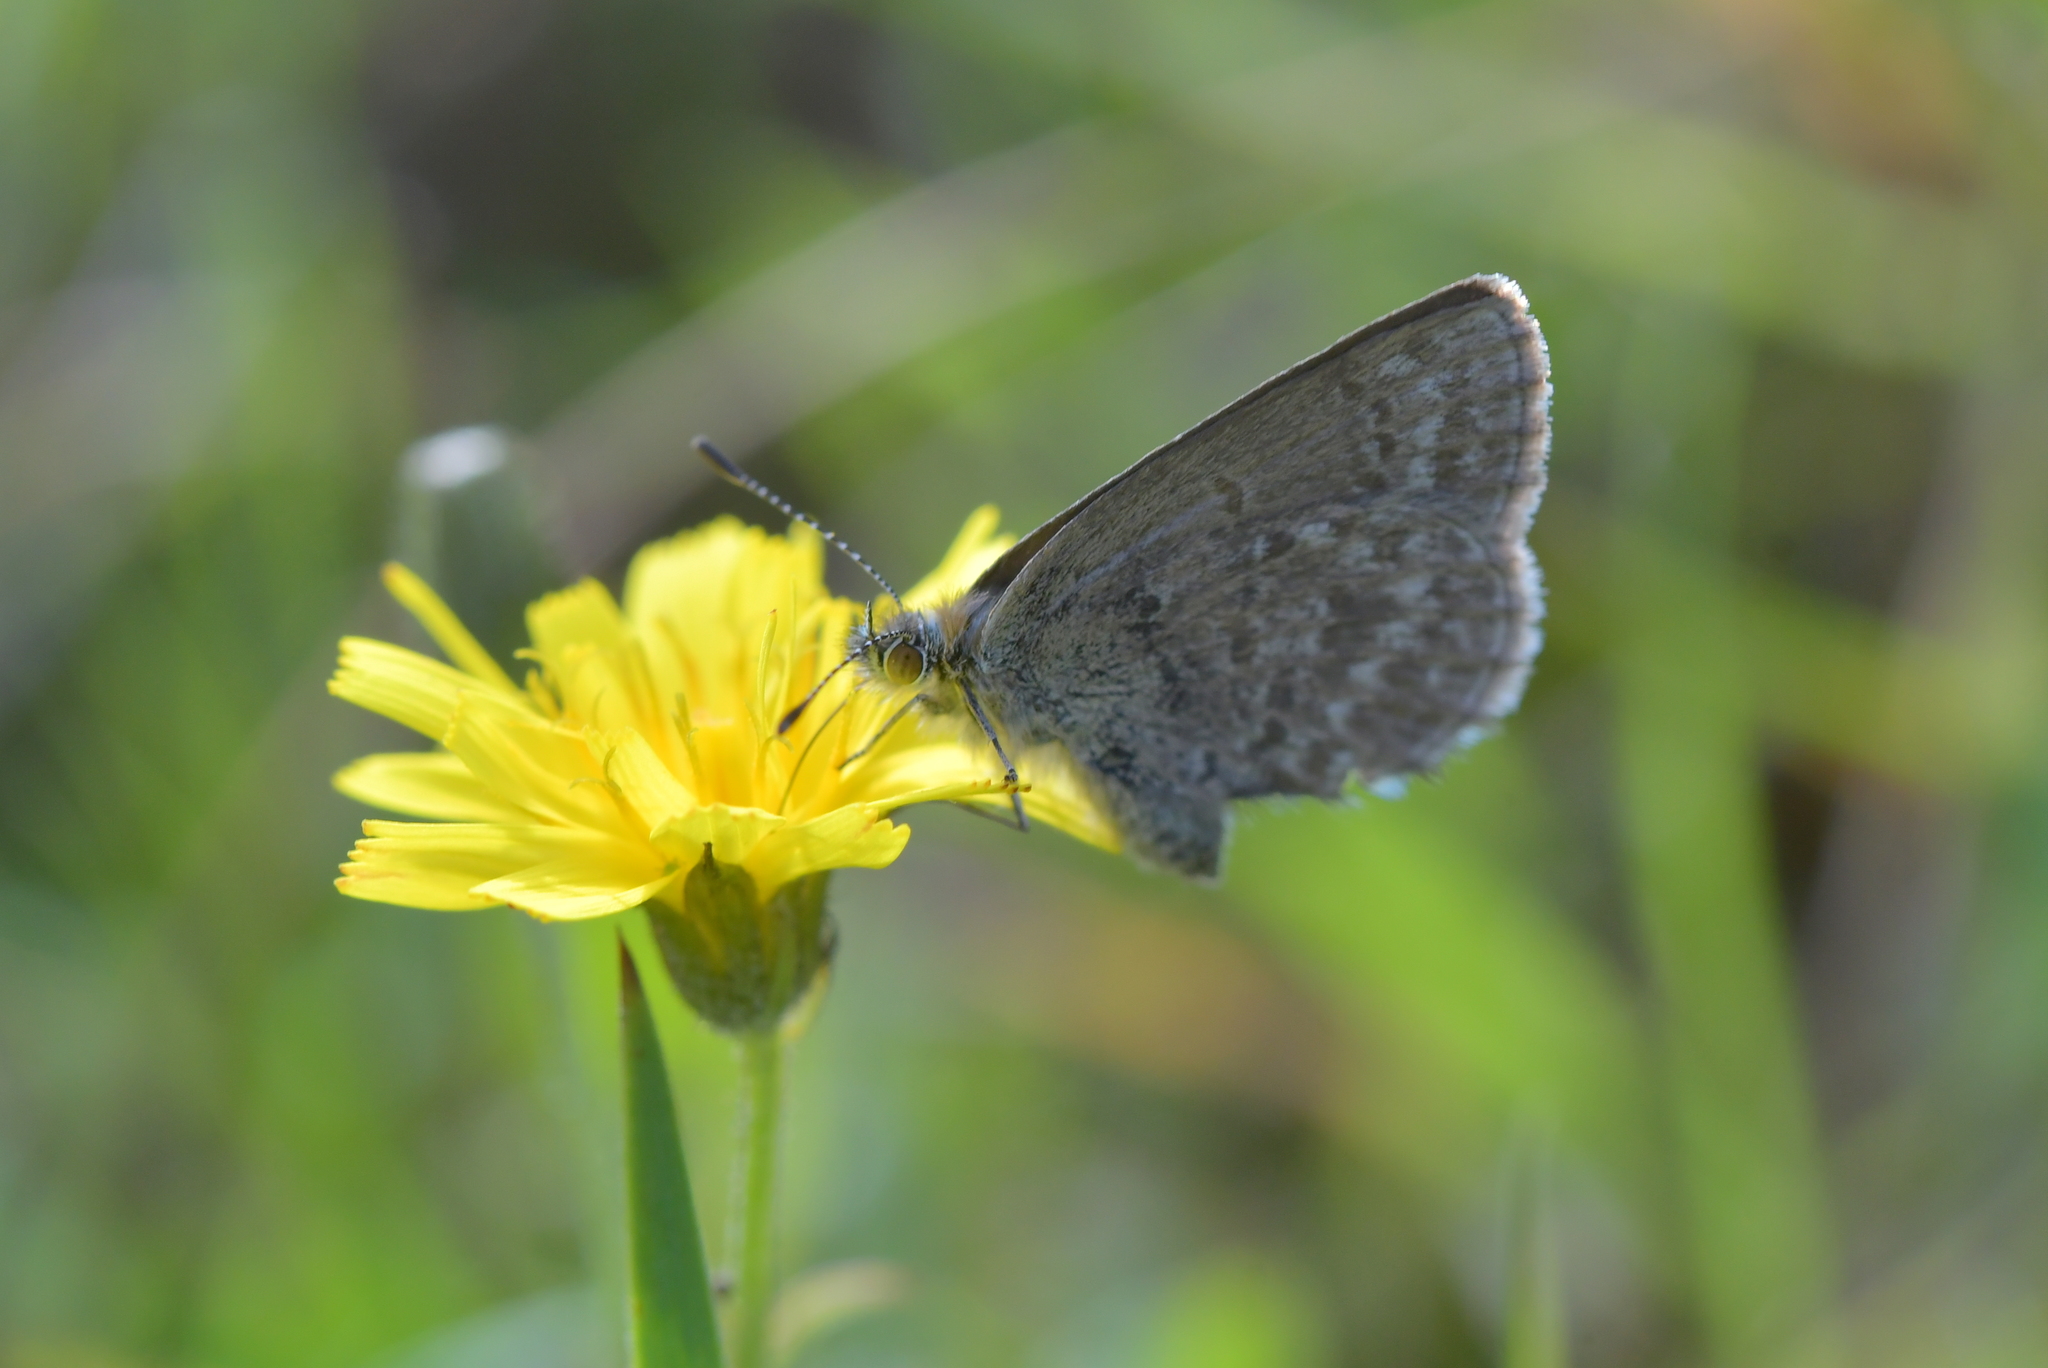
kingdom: Animalia
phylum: Arthropoda
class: Insecta
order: Lepidoptera
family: Lycaenidae
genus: Zizina
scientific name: Zizina labradus
